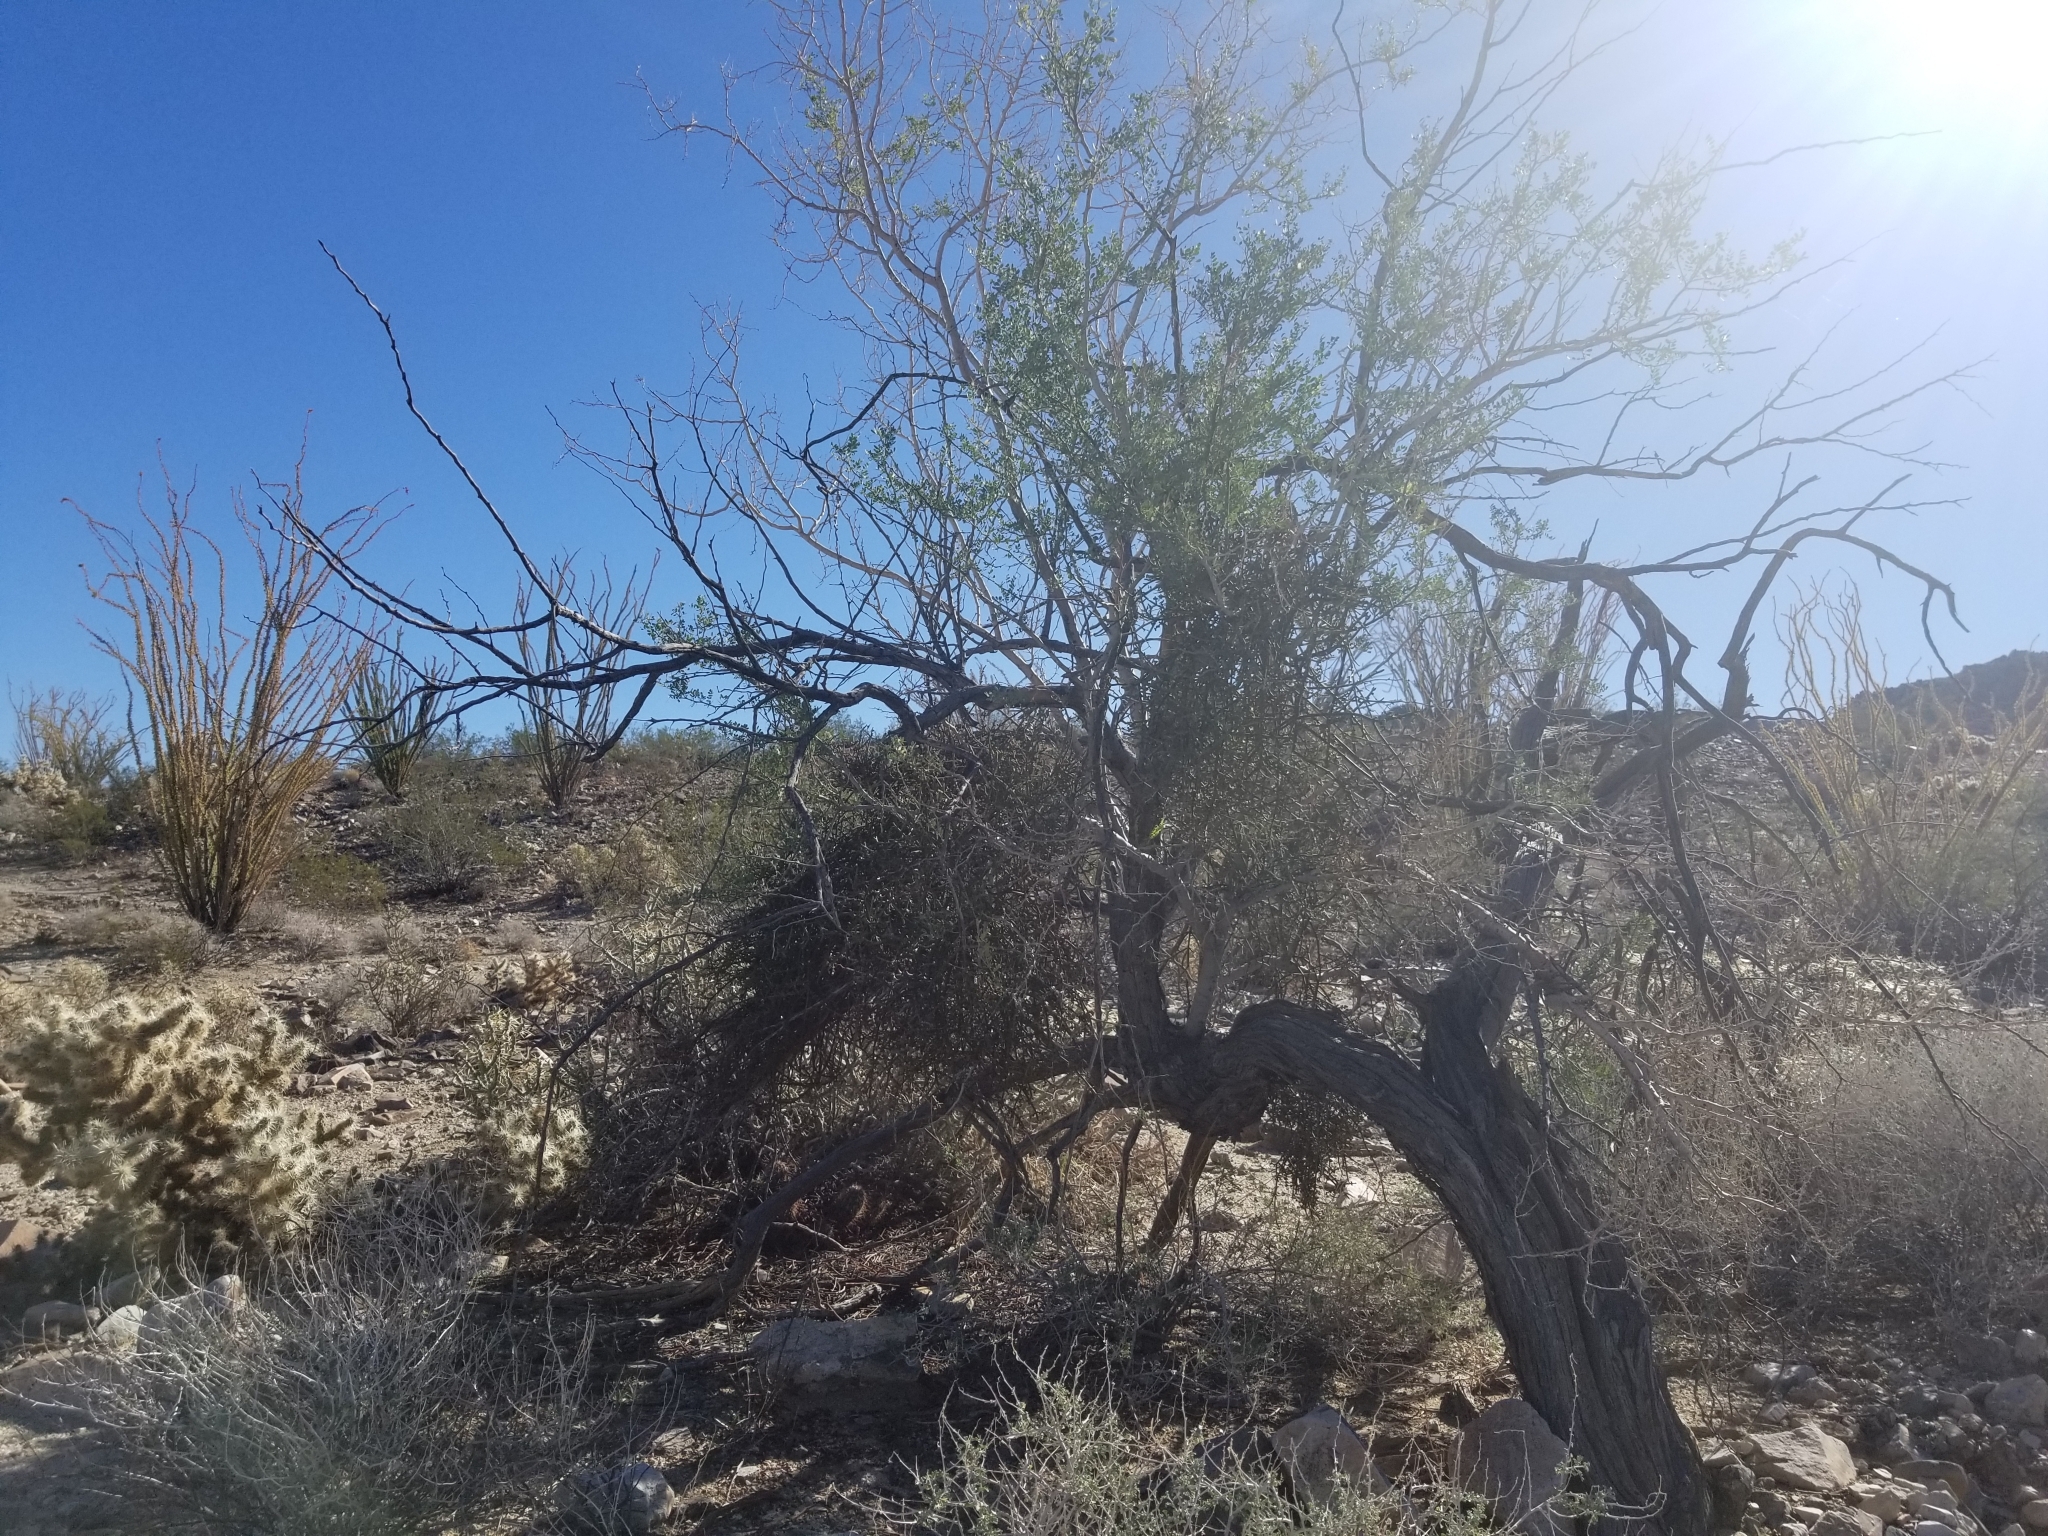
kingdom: Plantae
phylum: Tracheophyta
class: Magnoliopsida
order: Fabales
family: Fabaceae
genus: Senegalia
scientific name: Senegalia greggii
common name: Texas-mimosa
